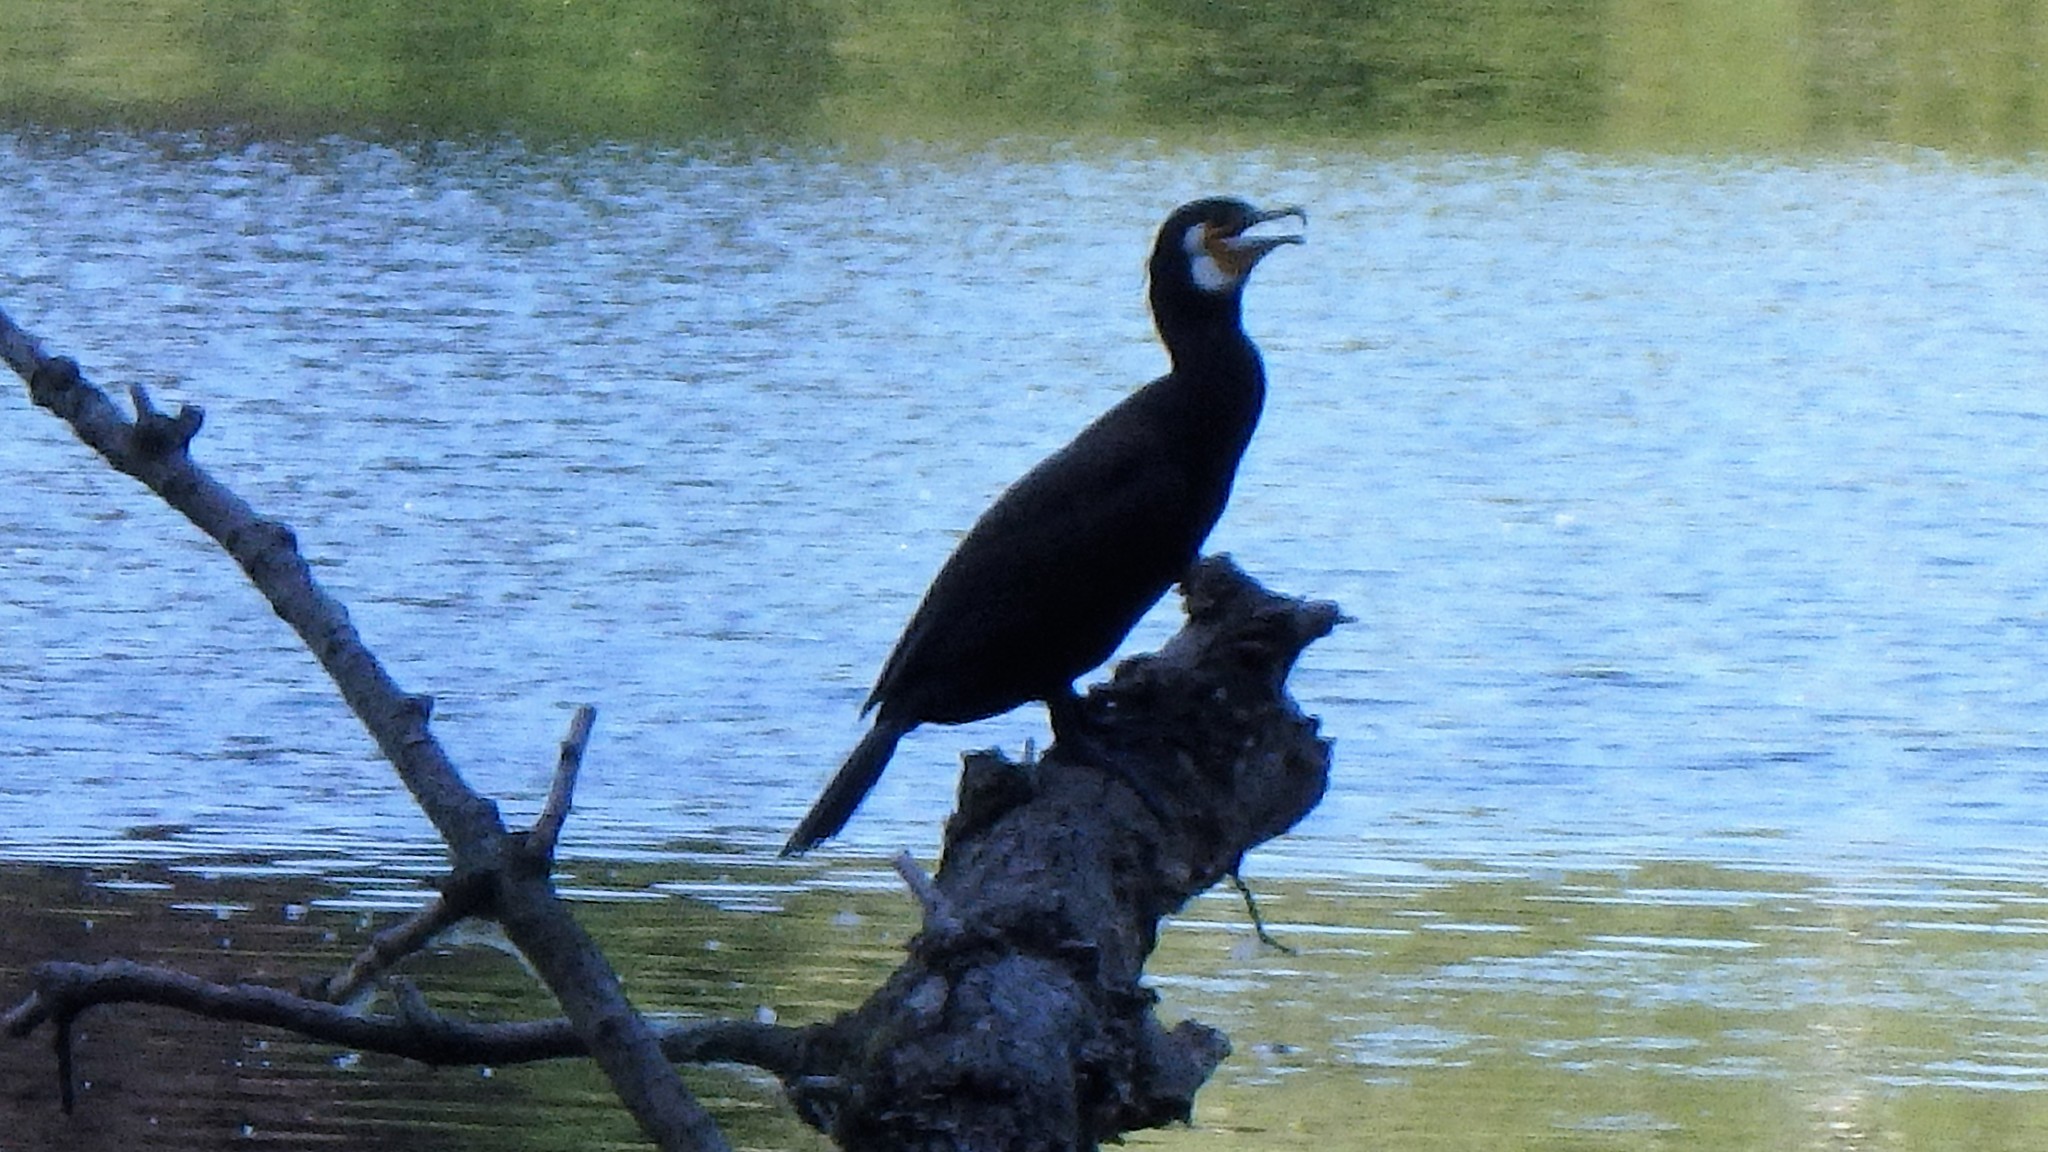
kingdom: Animalia
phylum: Chordata
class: Aves
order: Suliformes
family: Phalacrocoracidae
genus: Phalacrocorax
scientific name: Phalacrocorax carbo
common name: Great cormorant
